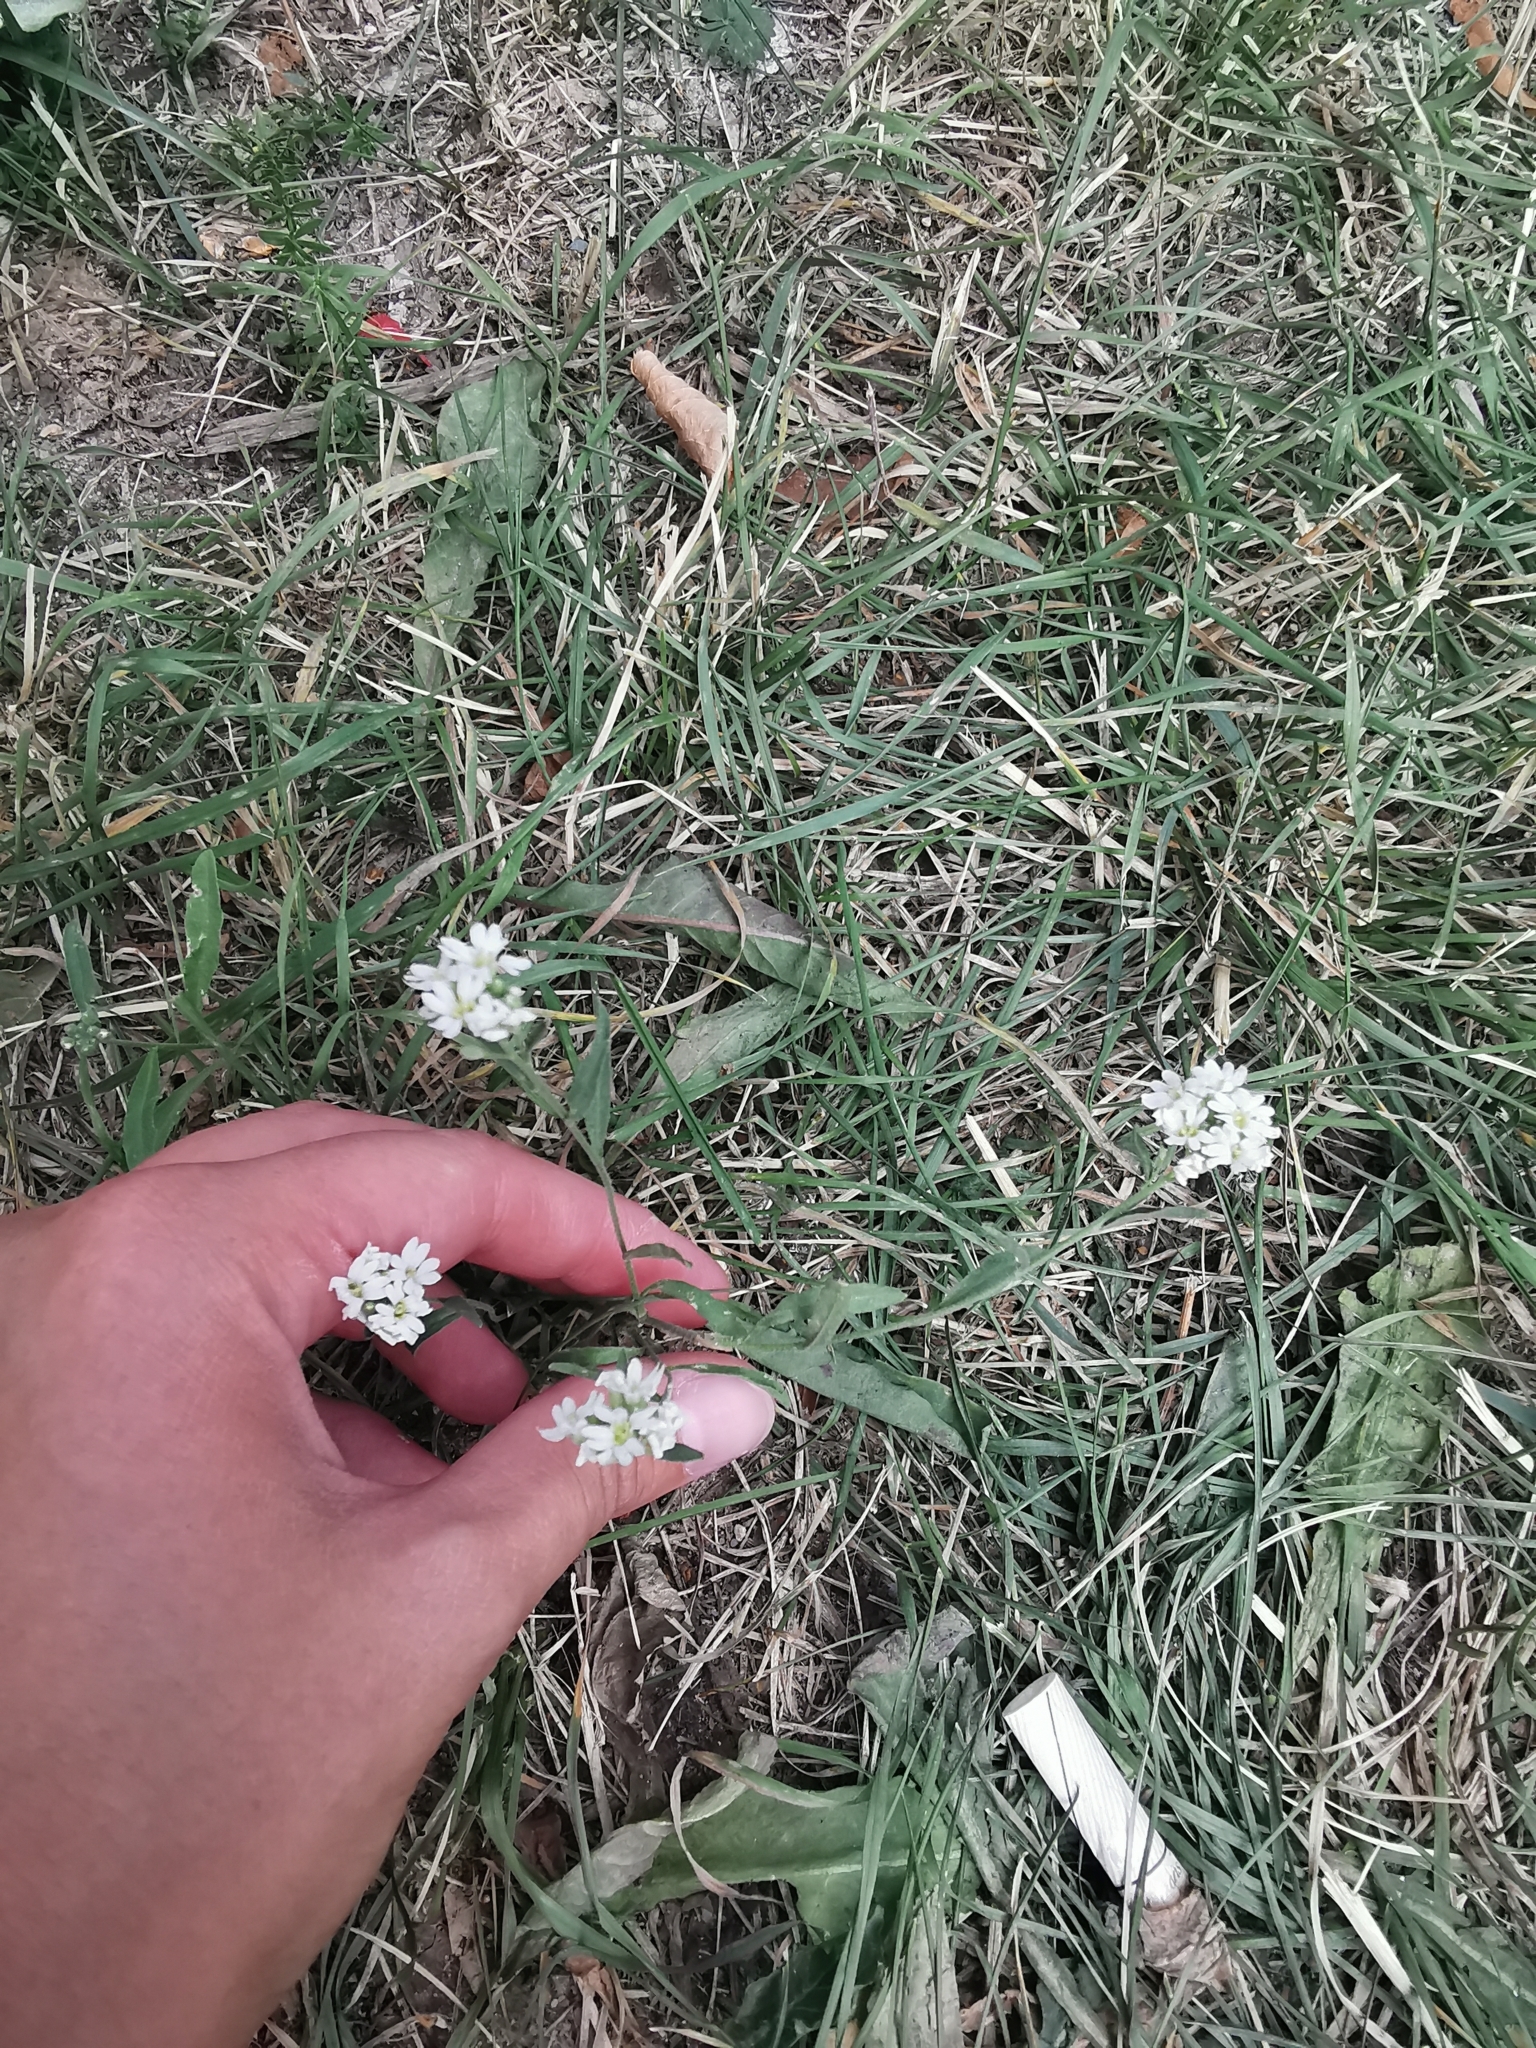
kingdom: Plantae
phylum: Tracheophyta
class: Magnoliopsida
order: Brassicales
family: Brassicaceae
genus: Berteroa
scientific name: Berteroa incana
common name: Hoary alison
